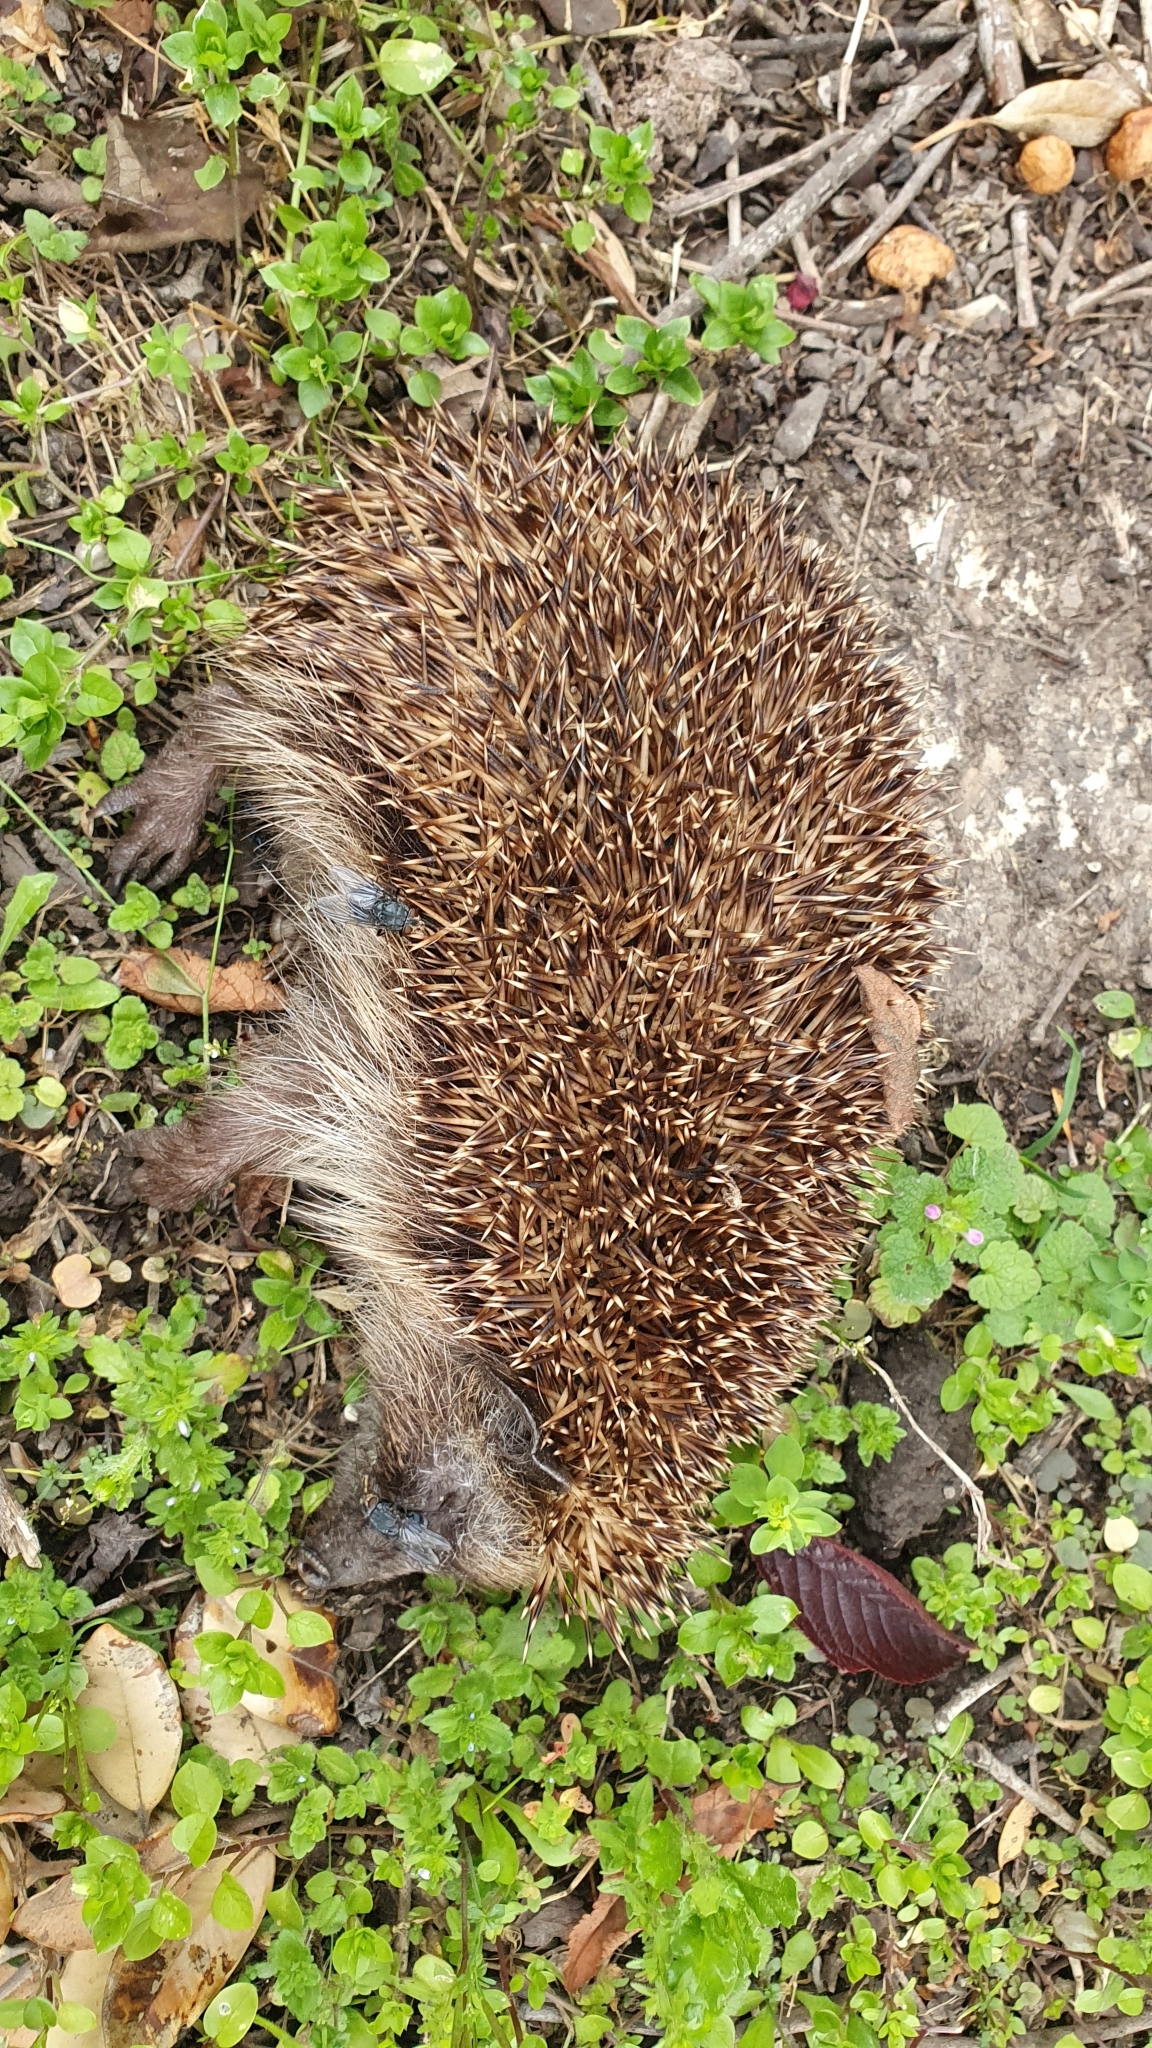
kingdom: Animalia
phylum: Chordata
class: Mammalia
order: Erinaceomorpha
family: Erinaceidae
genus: Erinaceus
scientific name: Erinaceus europaeus
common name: West european hedgehog
